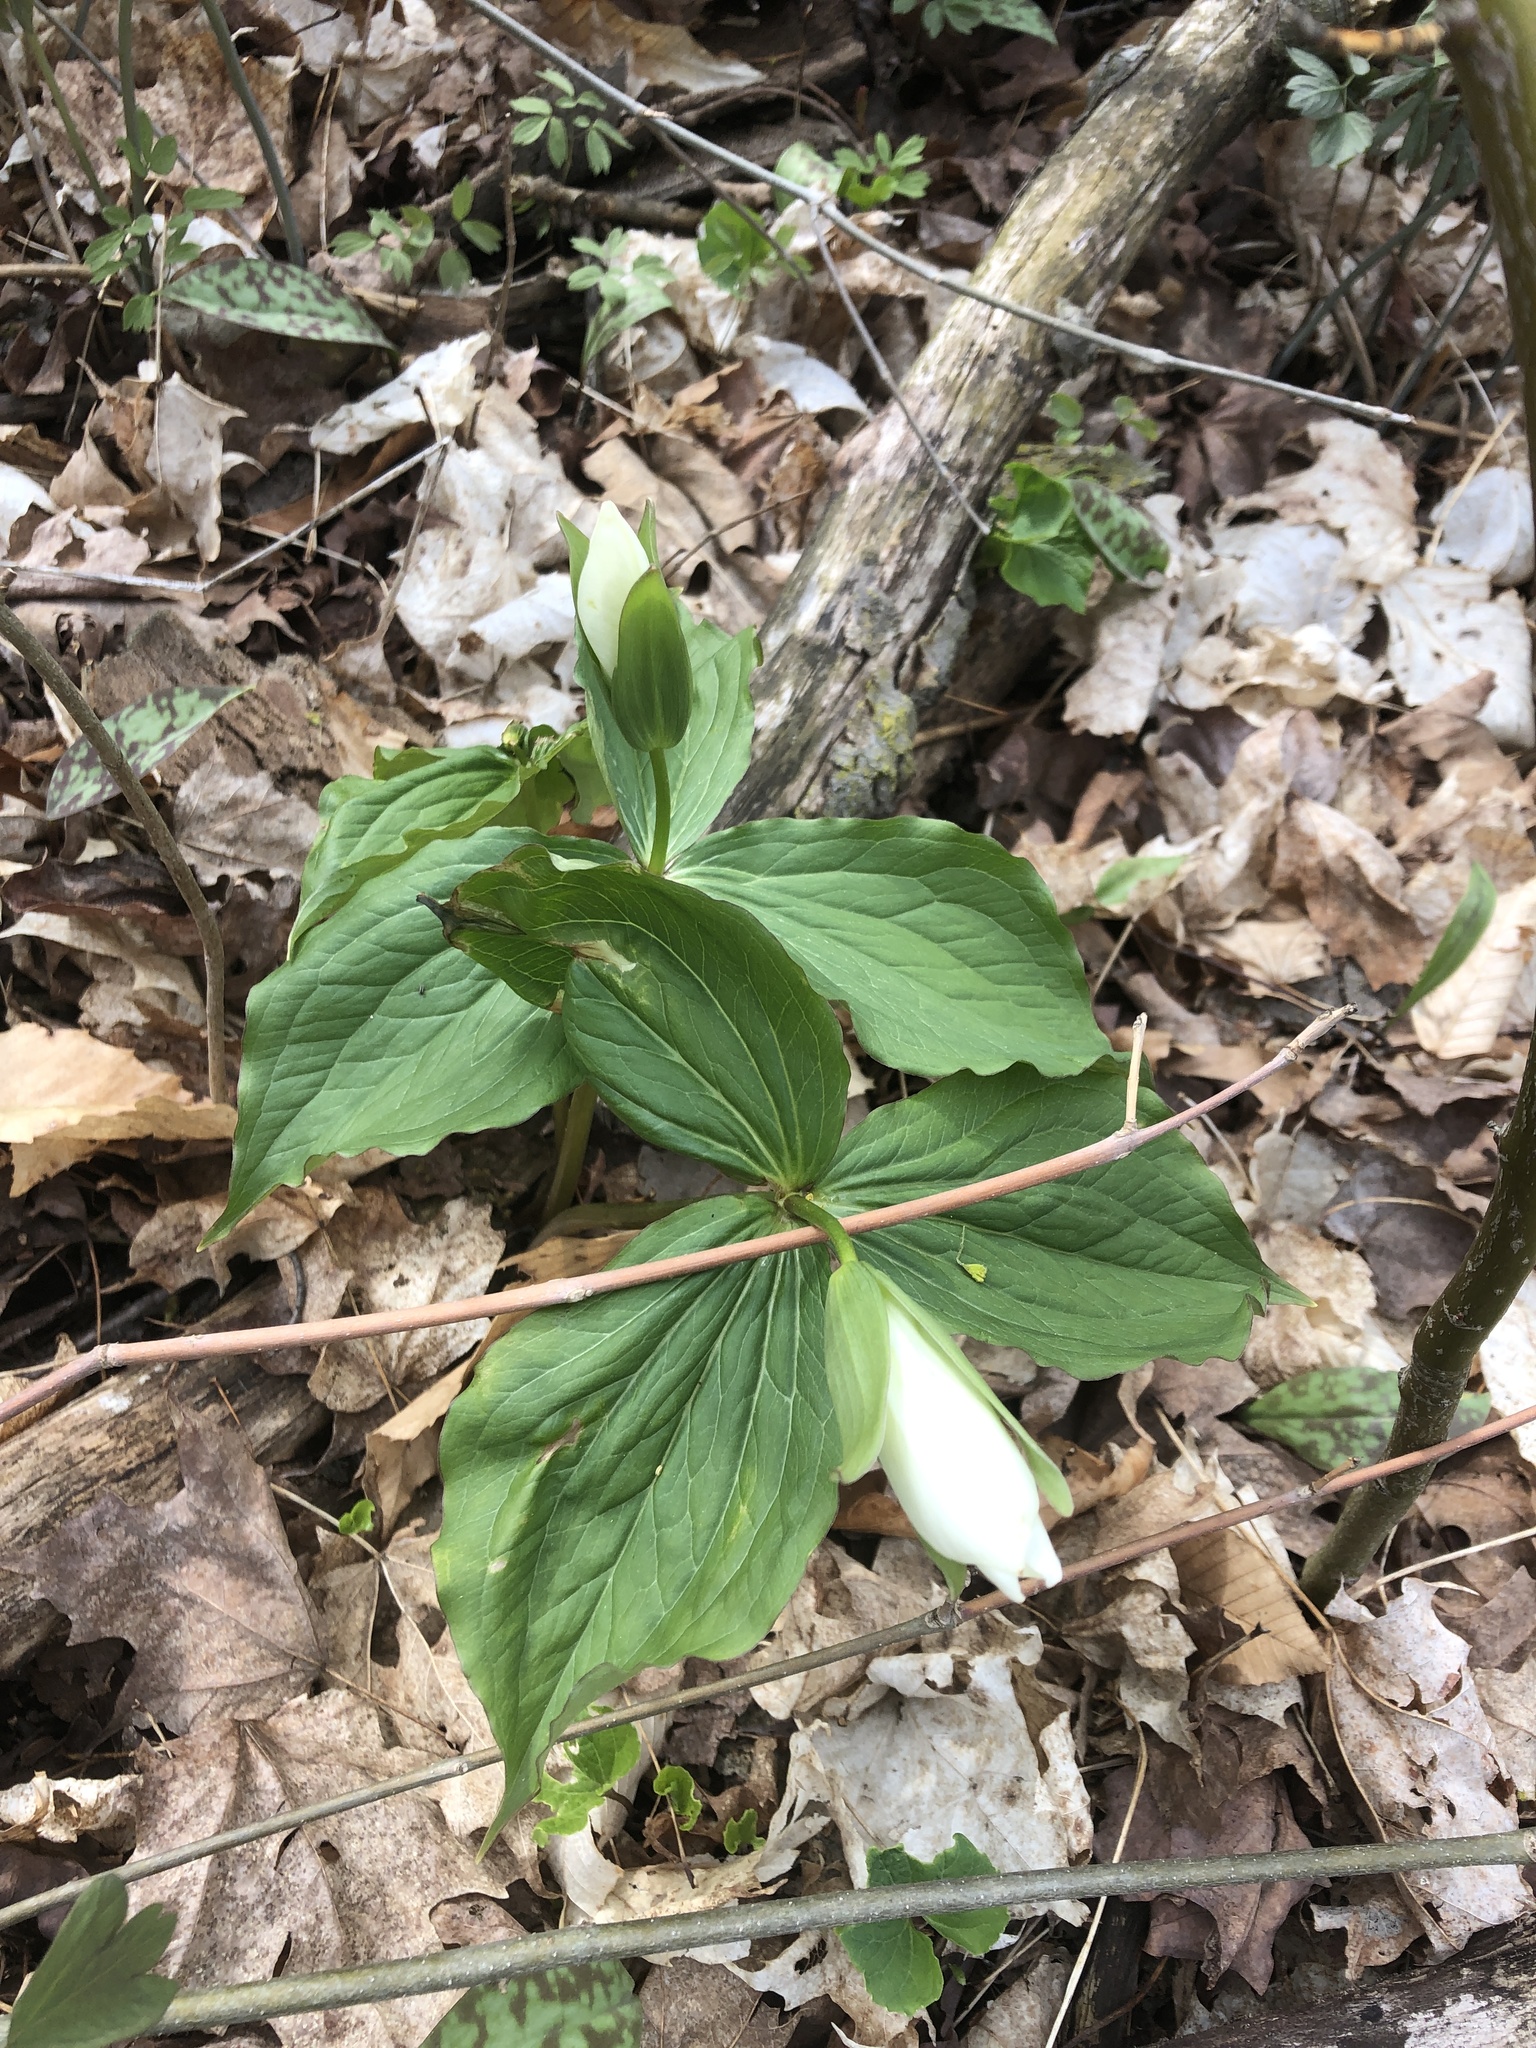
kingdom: Plantae
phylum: Tracheophyta
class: Liliopsida
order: Liliales
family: Melanthiaceae
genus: Trillium
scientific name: Trillium grandiflorum
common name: Great white trillium
